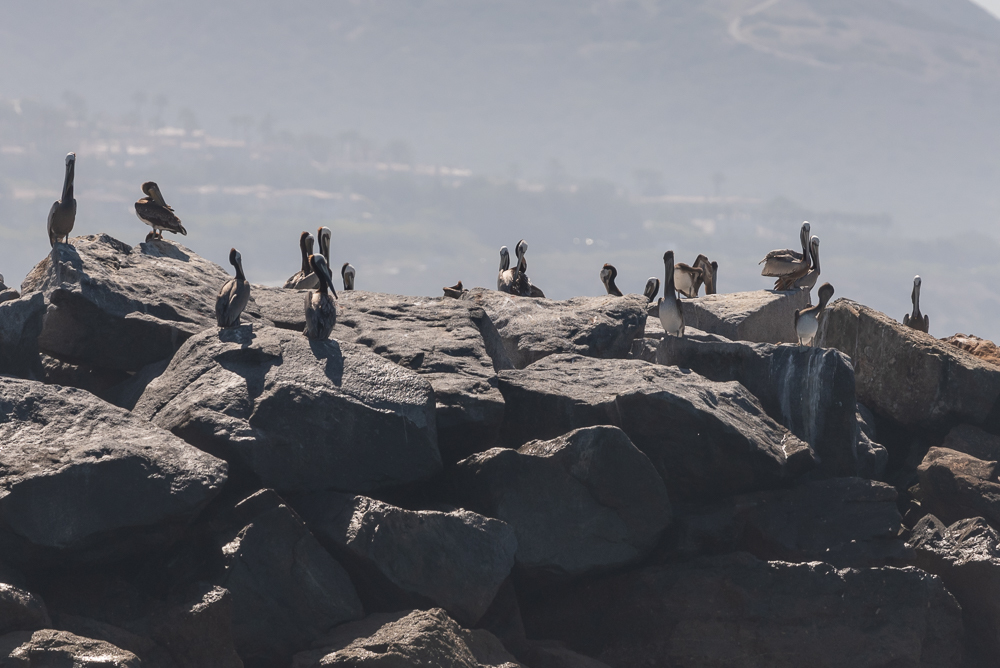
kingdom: Animalia
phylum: Chordata
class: Aves
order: Pelecaniformes
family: Pelecanidae
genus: Pelecanus
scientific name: Pelecanus occidentalis
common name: Brown pelican
